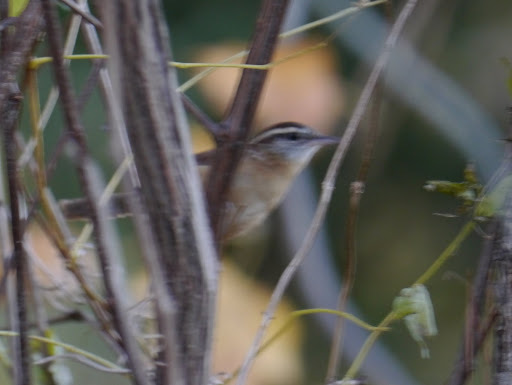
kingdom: Animalia
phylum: Chordata
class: Aves
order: Passeriformes
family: Troglodytidae
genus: Thryothorus
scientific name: Thryothorus ludovicianus
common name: Carolina wren
